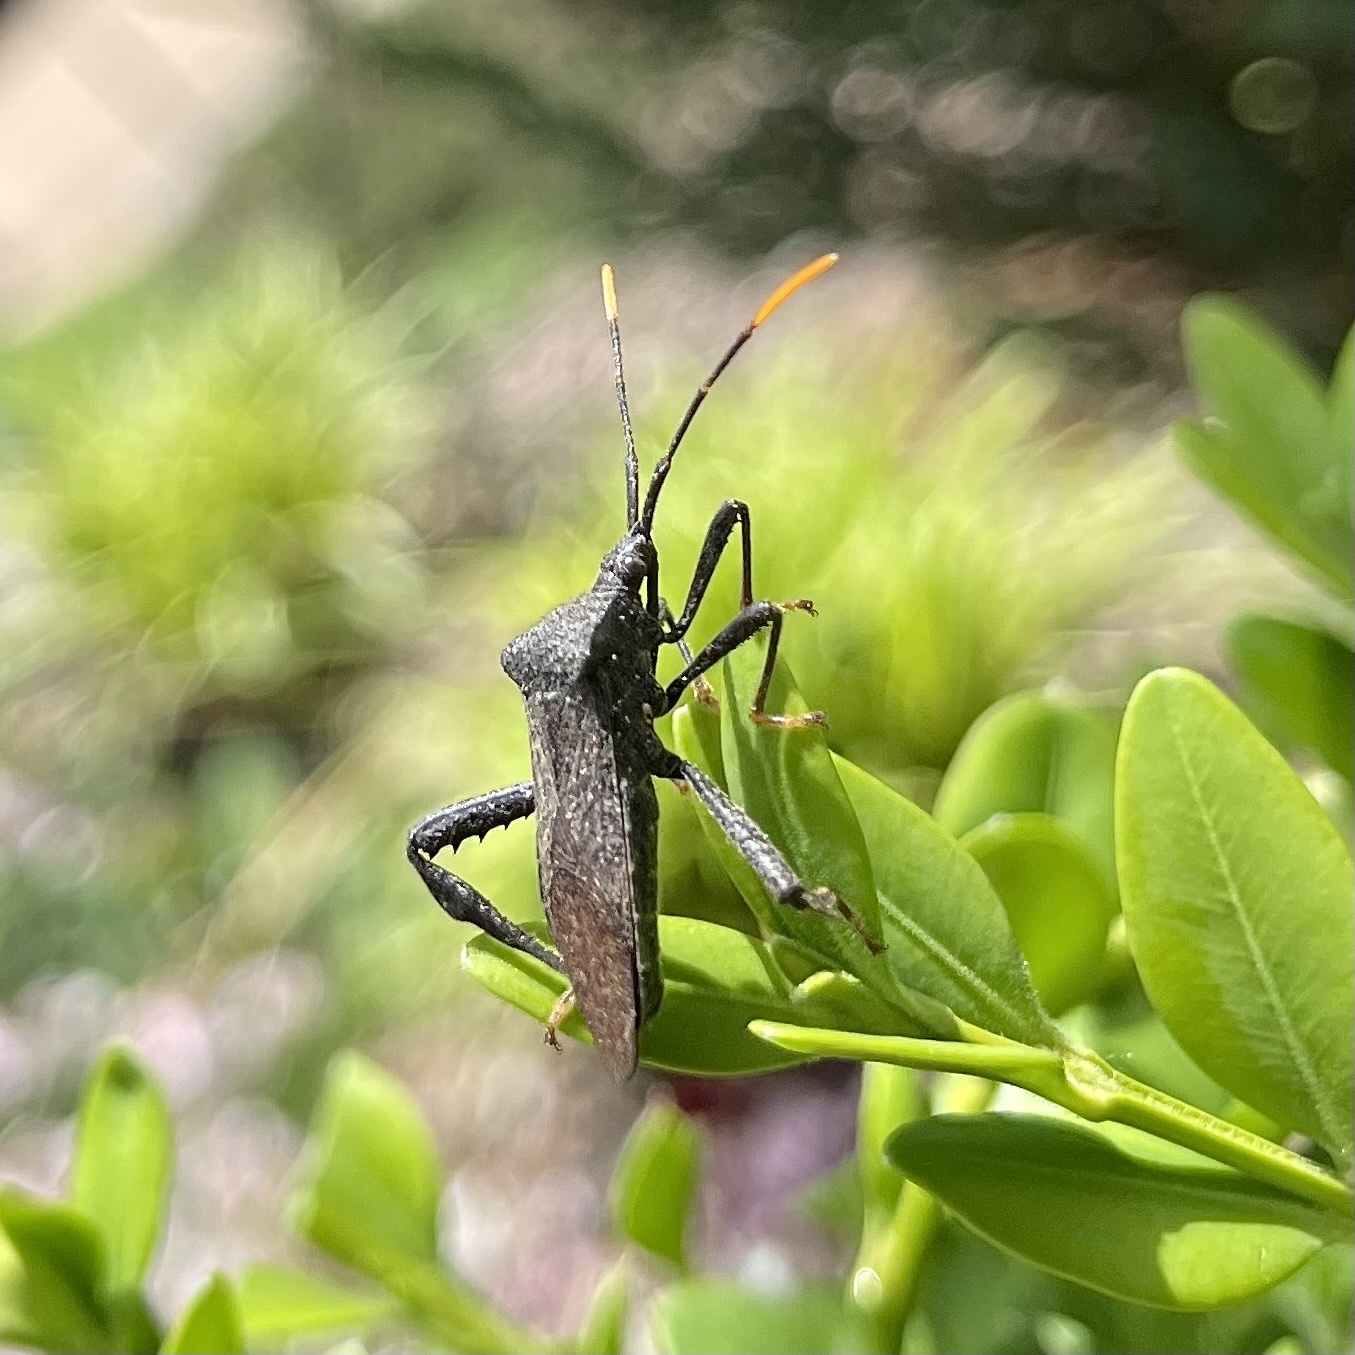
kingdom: Animalia
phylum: Arthropoda
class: Insecta
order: Hemiptera
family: Coreidae
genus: Acanthocephala
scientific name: Acanthocephala terminalis
